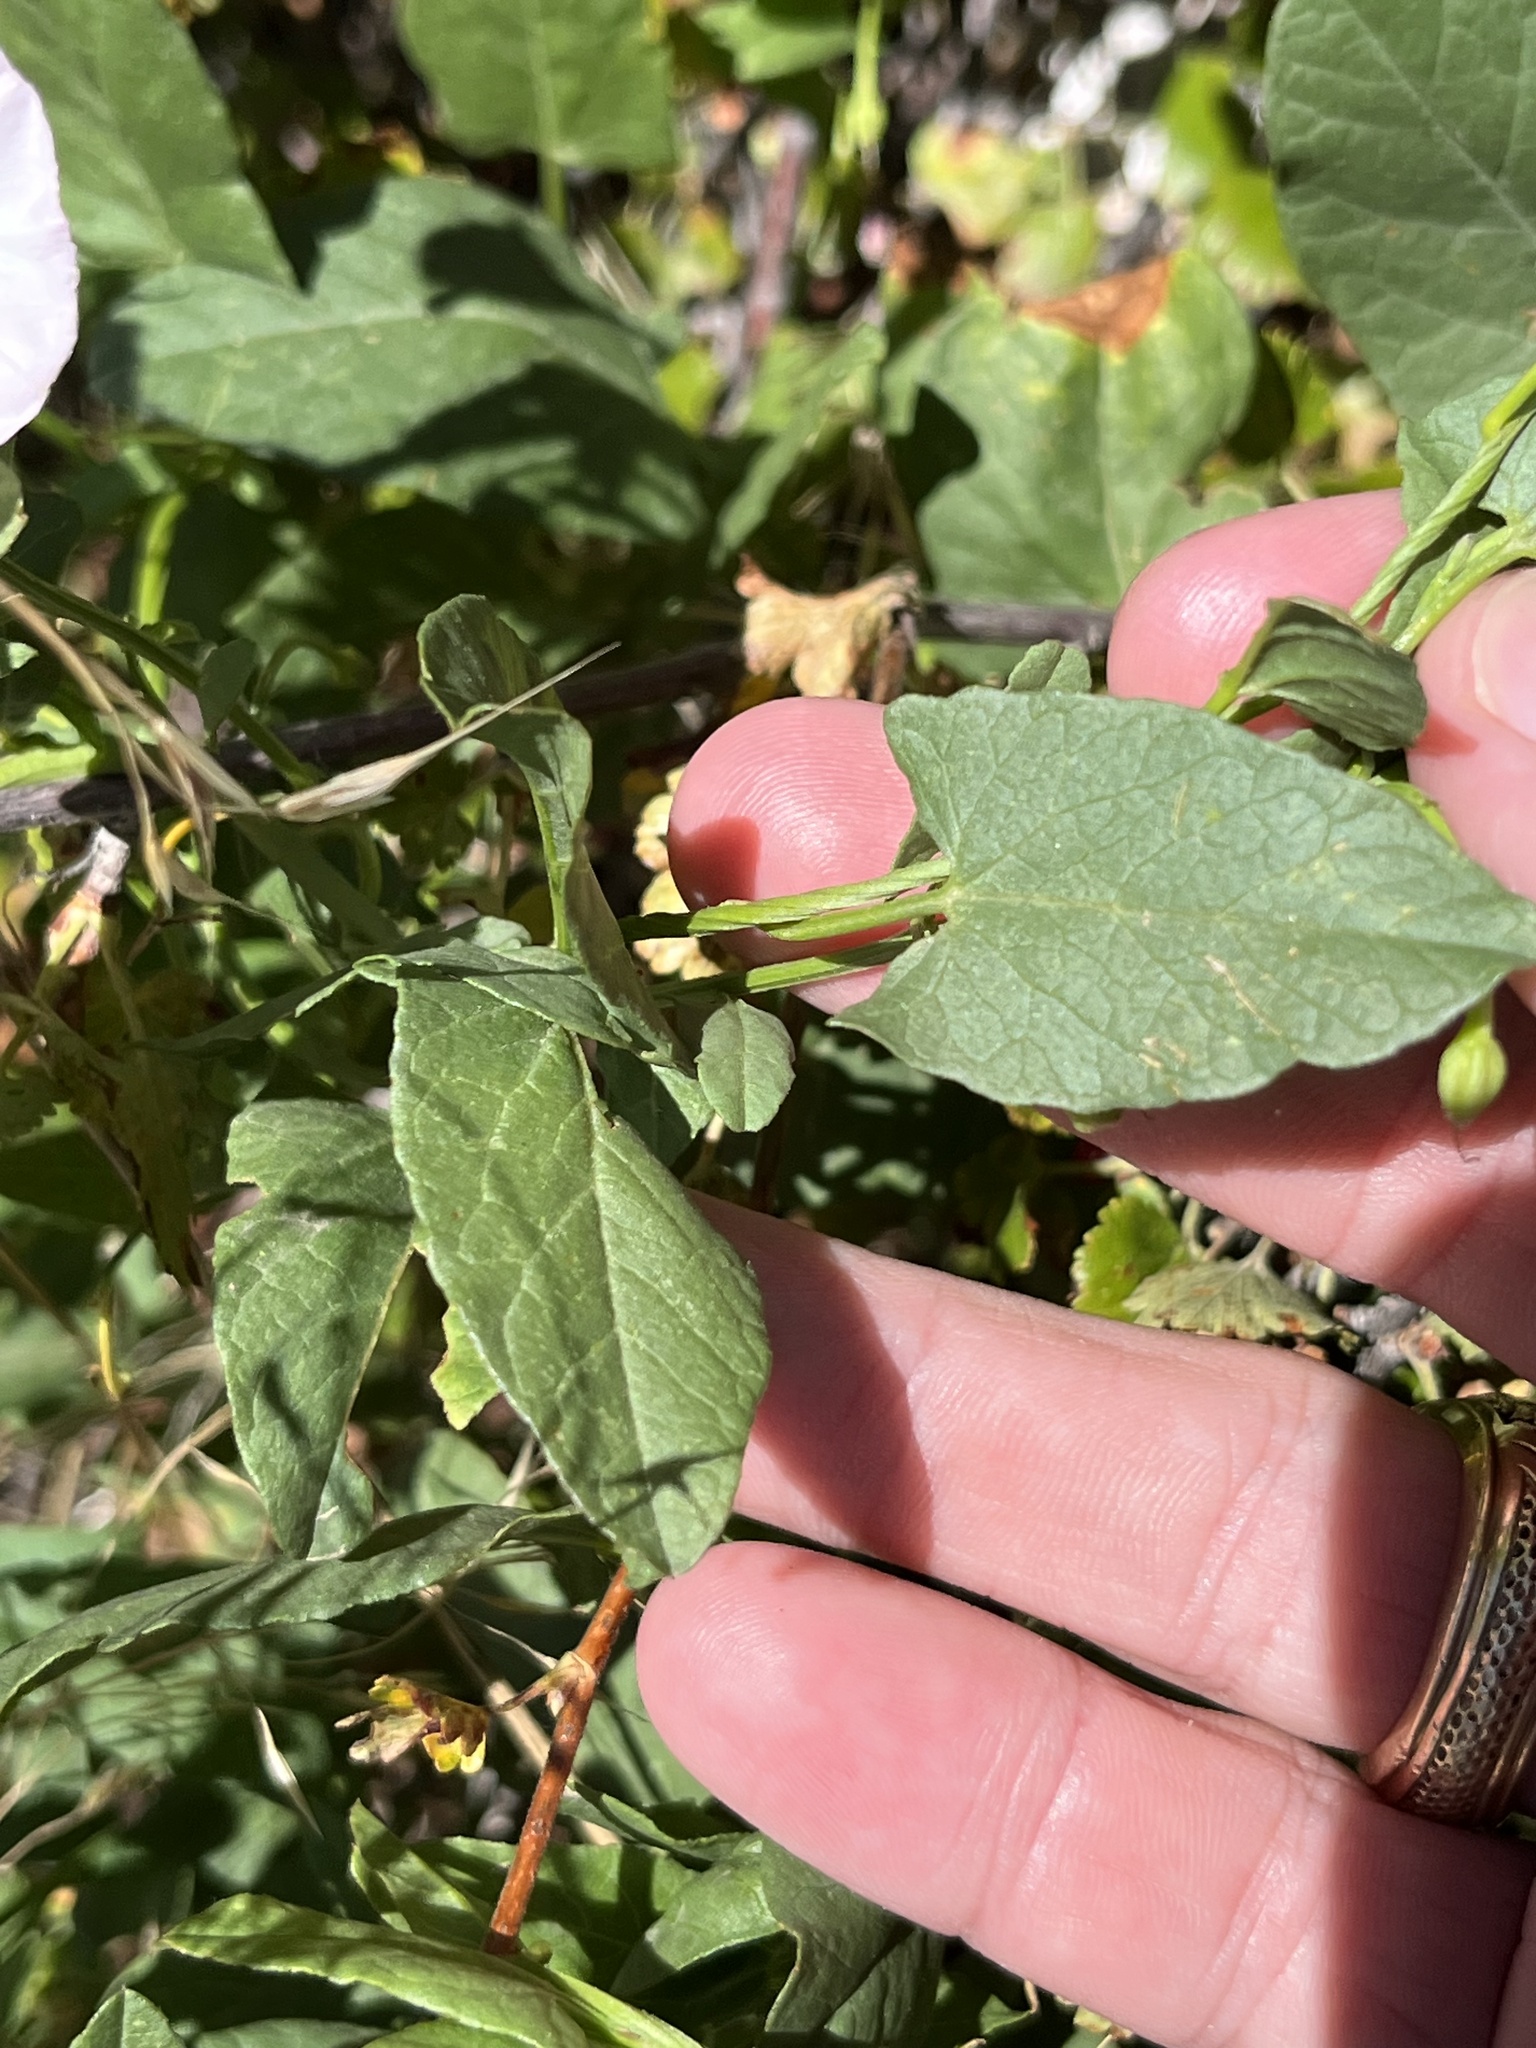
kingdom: Plantae
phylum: Tracheophyta
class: Magnoliopsida
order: Solanales
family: Convolvulaceae
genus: Convolvulus
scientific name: Convolvulus arvensis
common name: Field bindweed
